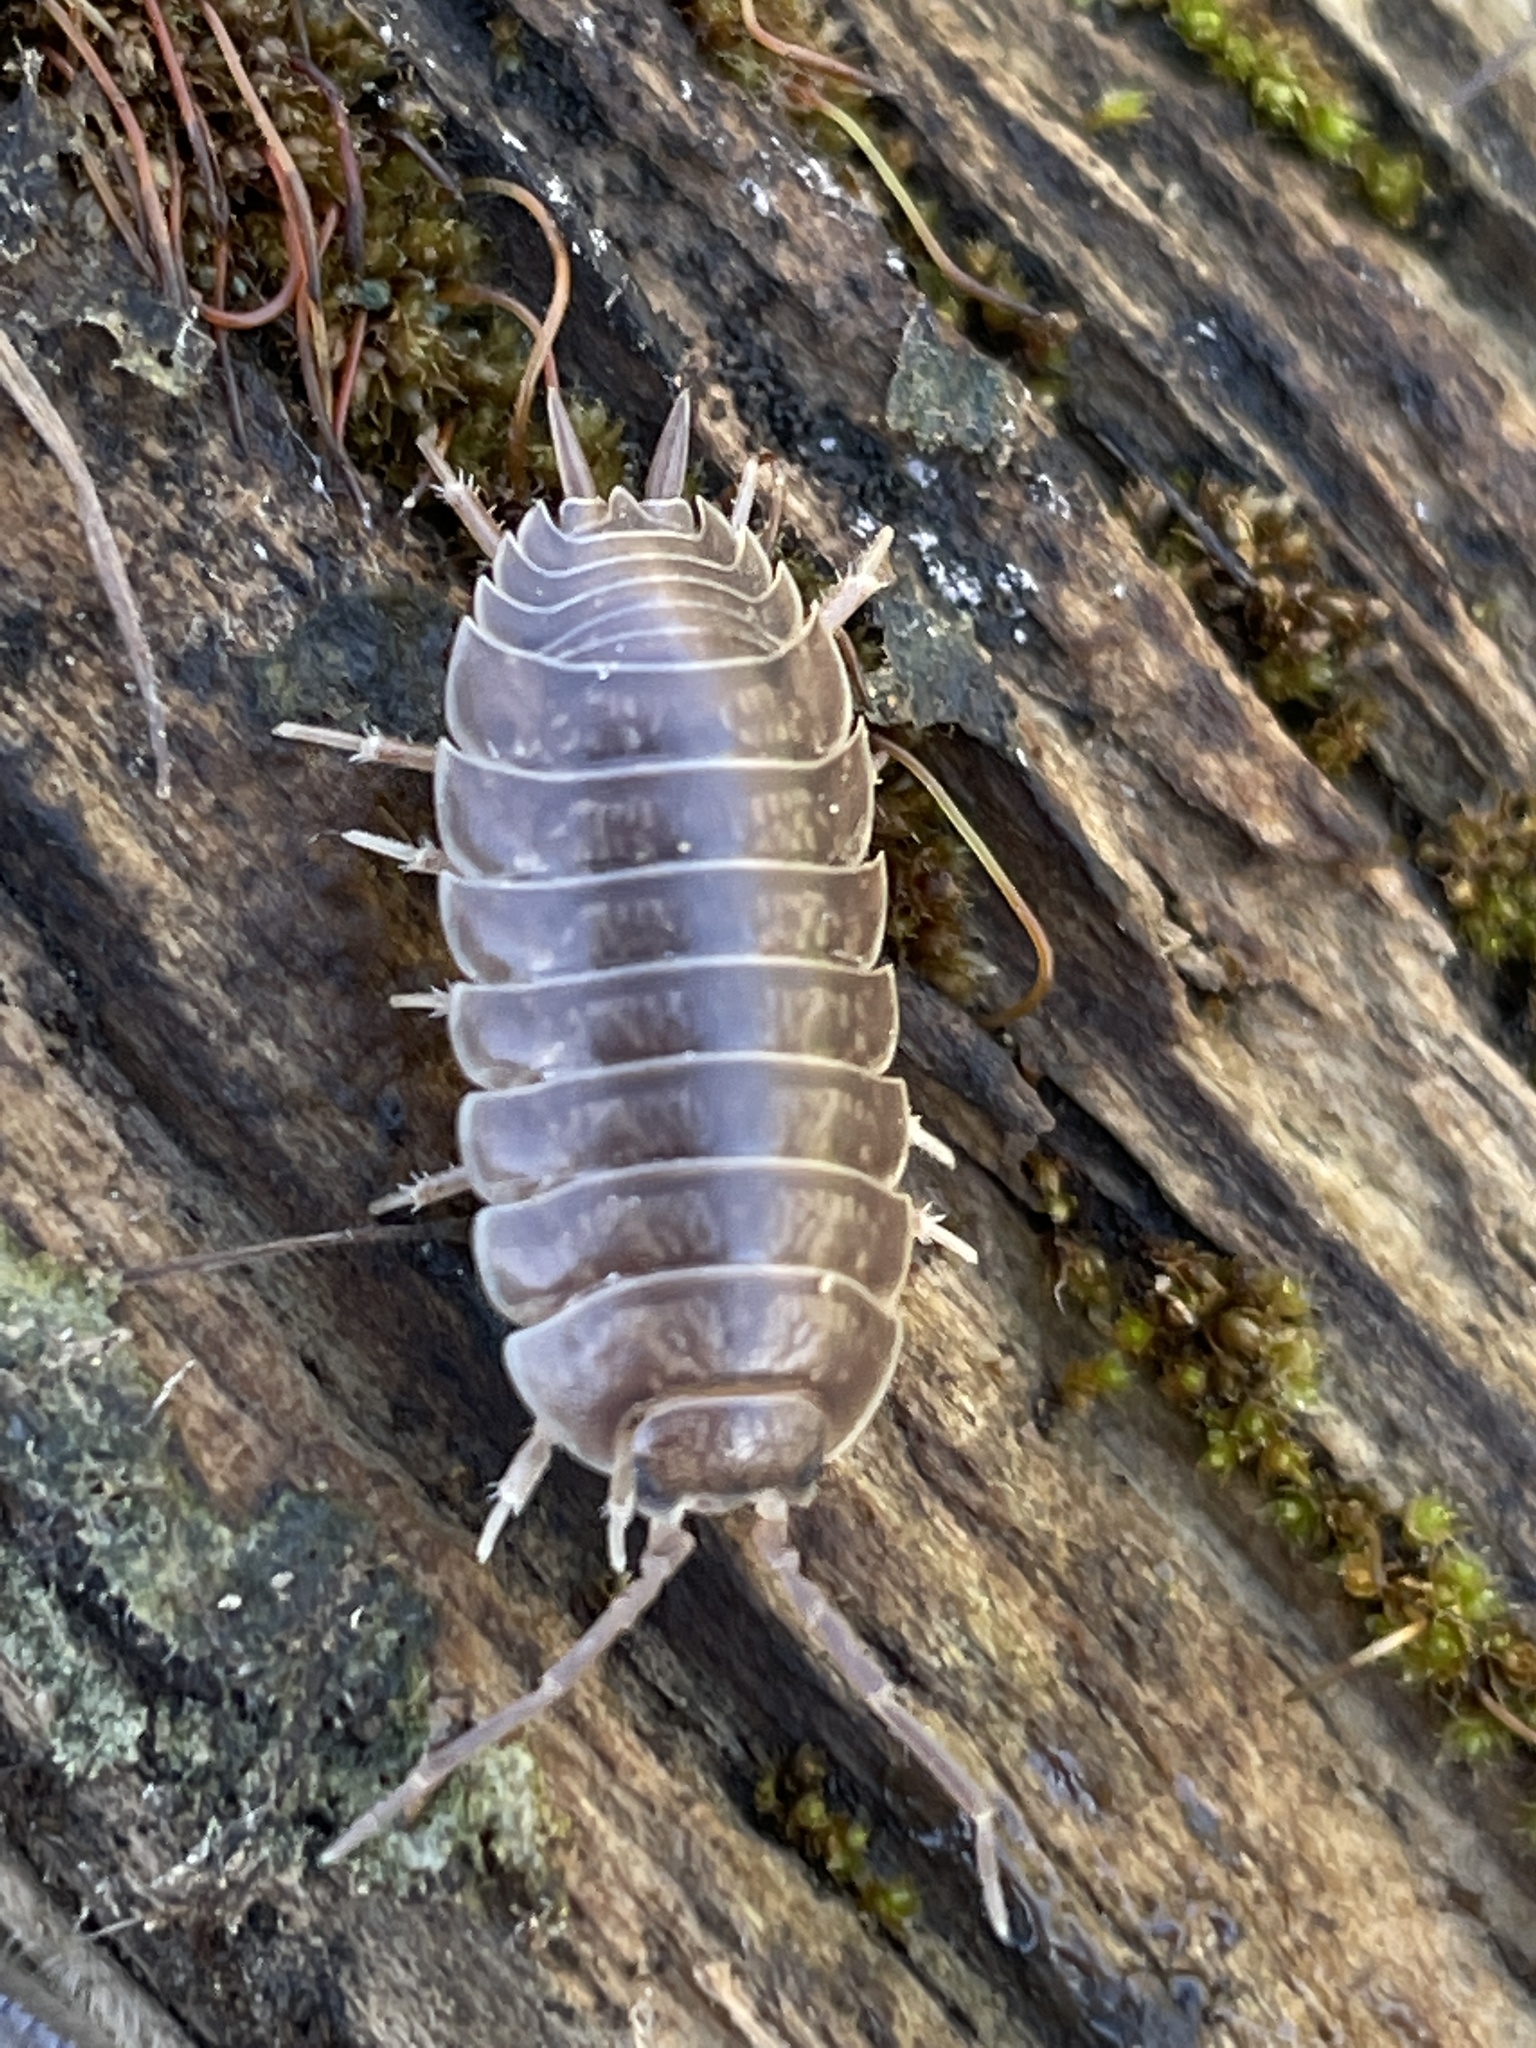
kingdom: Animalia
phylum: Arthropoda
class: Malacostraca
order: Isopoda
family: Porcellionidae
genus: Porcellio
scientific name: Porcellio laevis
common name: Swift woodlouse
